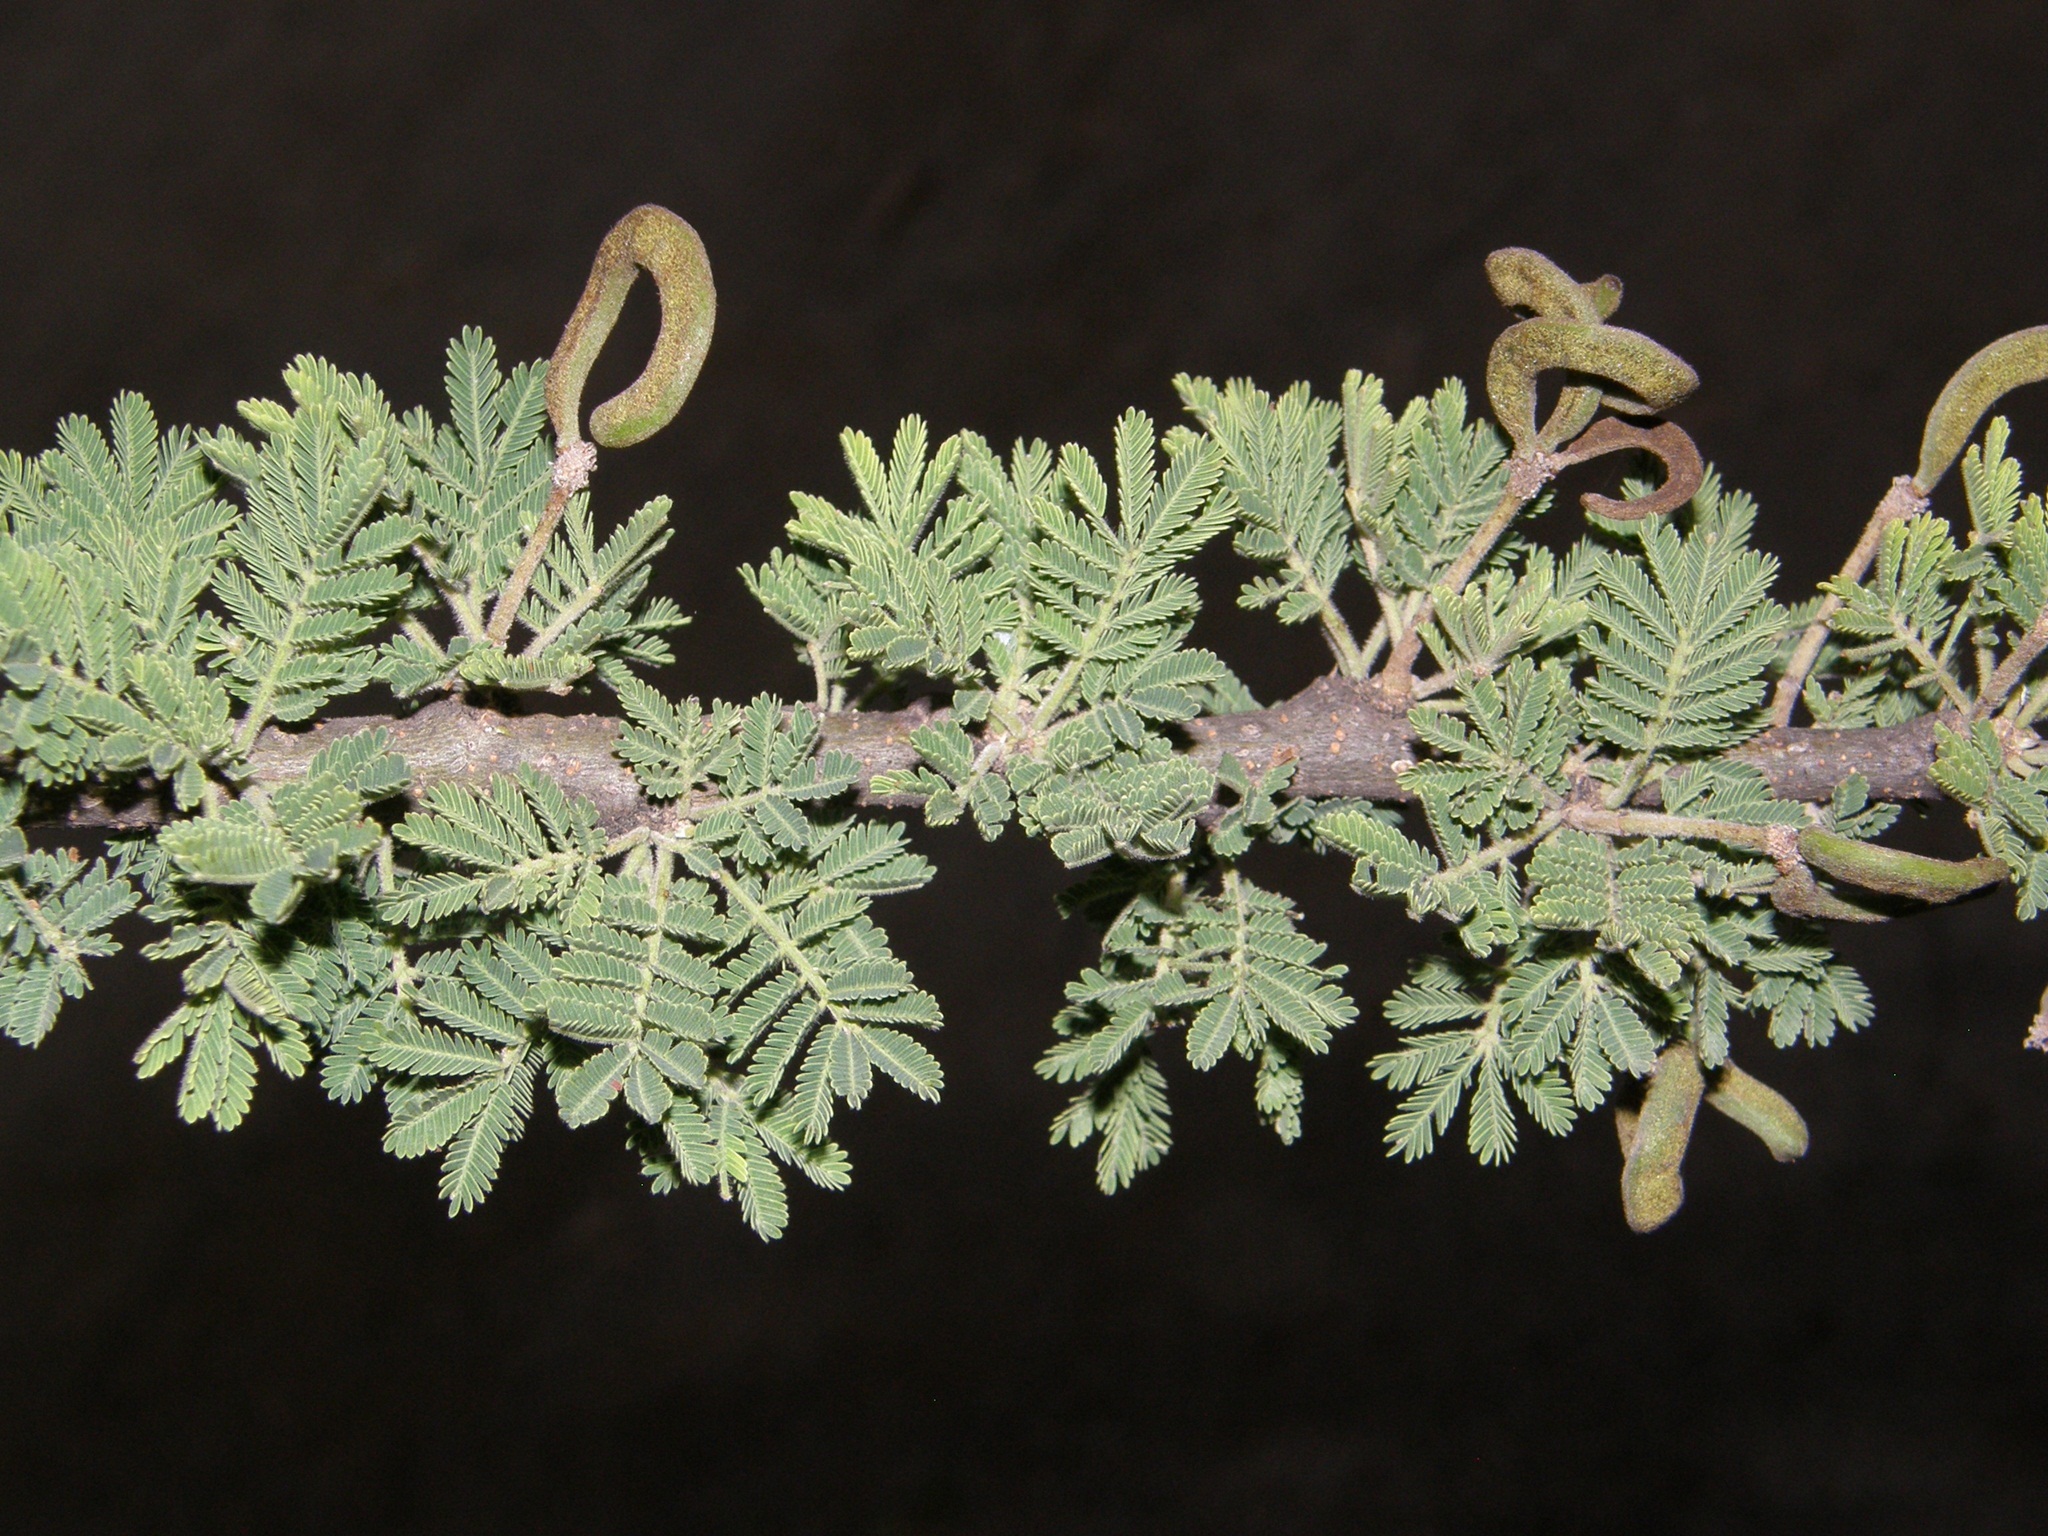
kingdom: Plantae
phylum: Tracheophyta
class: Magnoliopsida
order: Fabales
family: Fabaceae
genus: Vachellia
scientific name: Vachellia tortilis
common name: Umbrella thorn acacia
